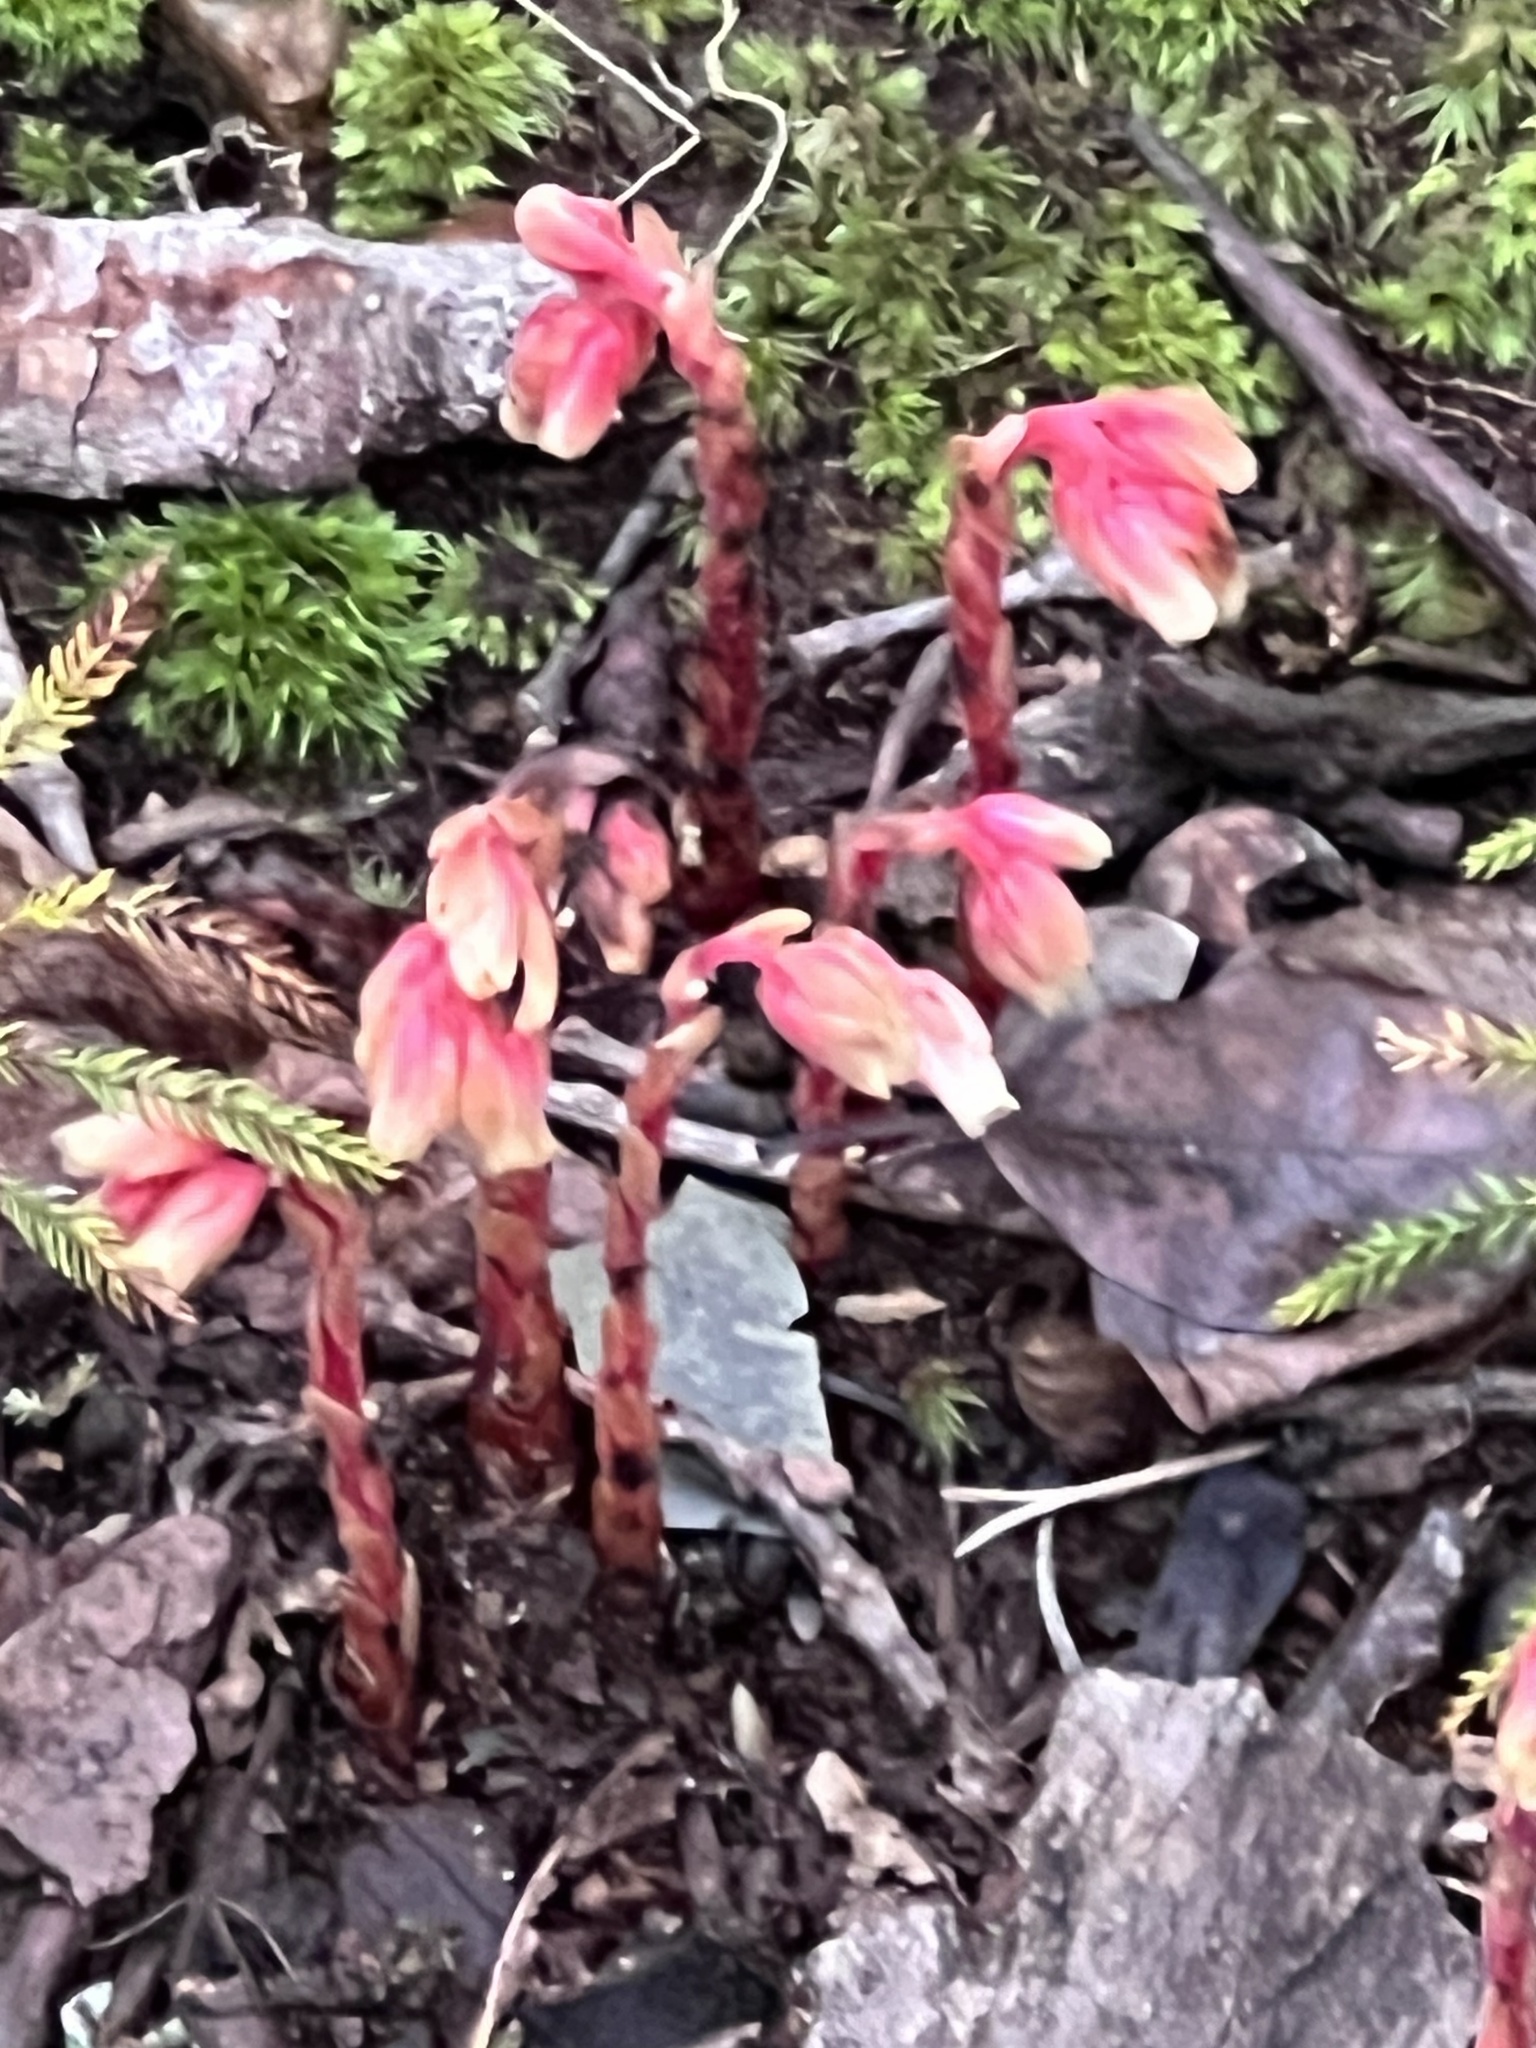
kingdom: Plantae
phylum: Tracheophyta
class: Magnoliopsida
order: Ericales
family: Ericaceae
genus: Hypopitys
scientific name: Hypopitys monotropa
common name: Yellow bird's-nest
